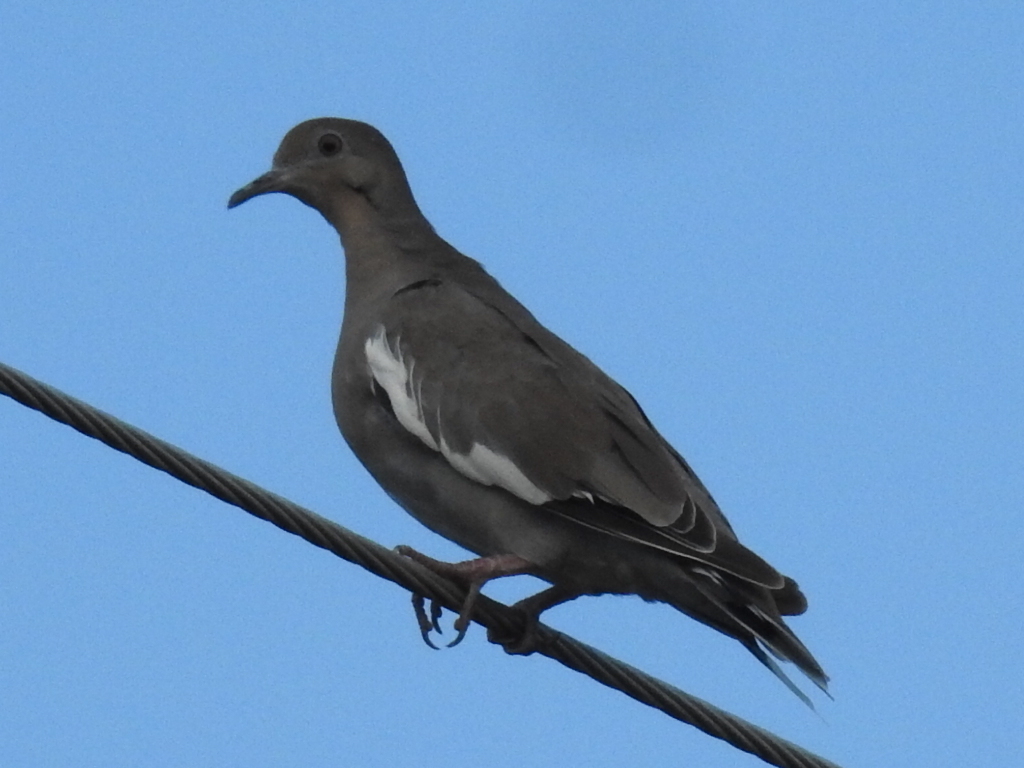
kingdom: Animalia
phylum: Chordata
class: Aves
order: Columbiformes
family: Columbidae
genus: Zenaida
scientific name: Zenaida asiatica
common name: White-winged dove
